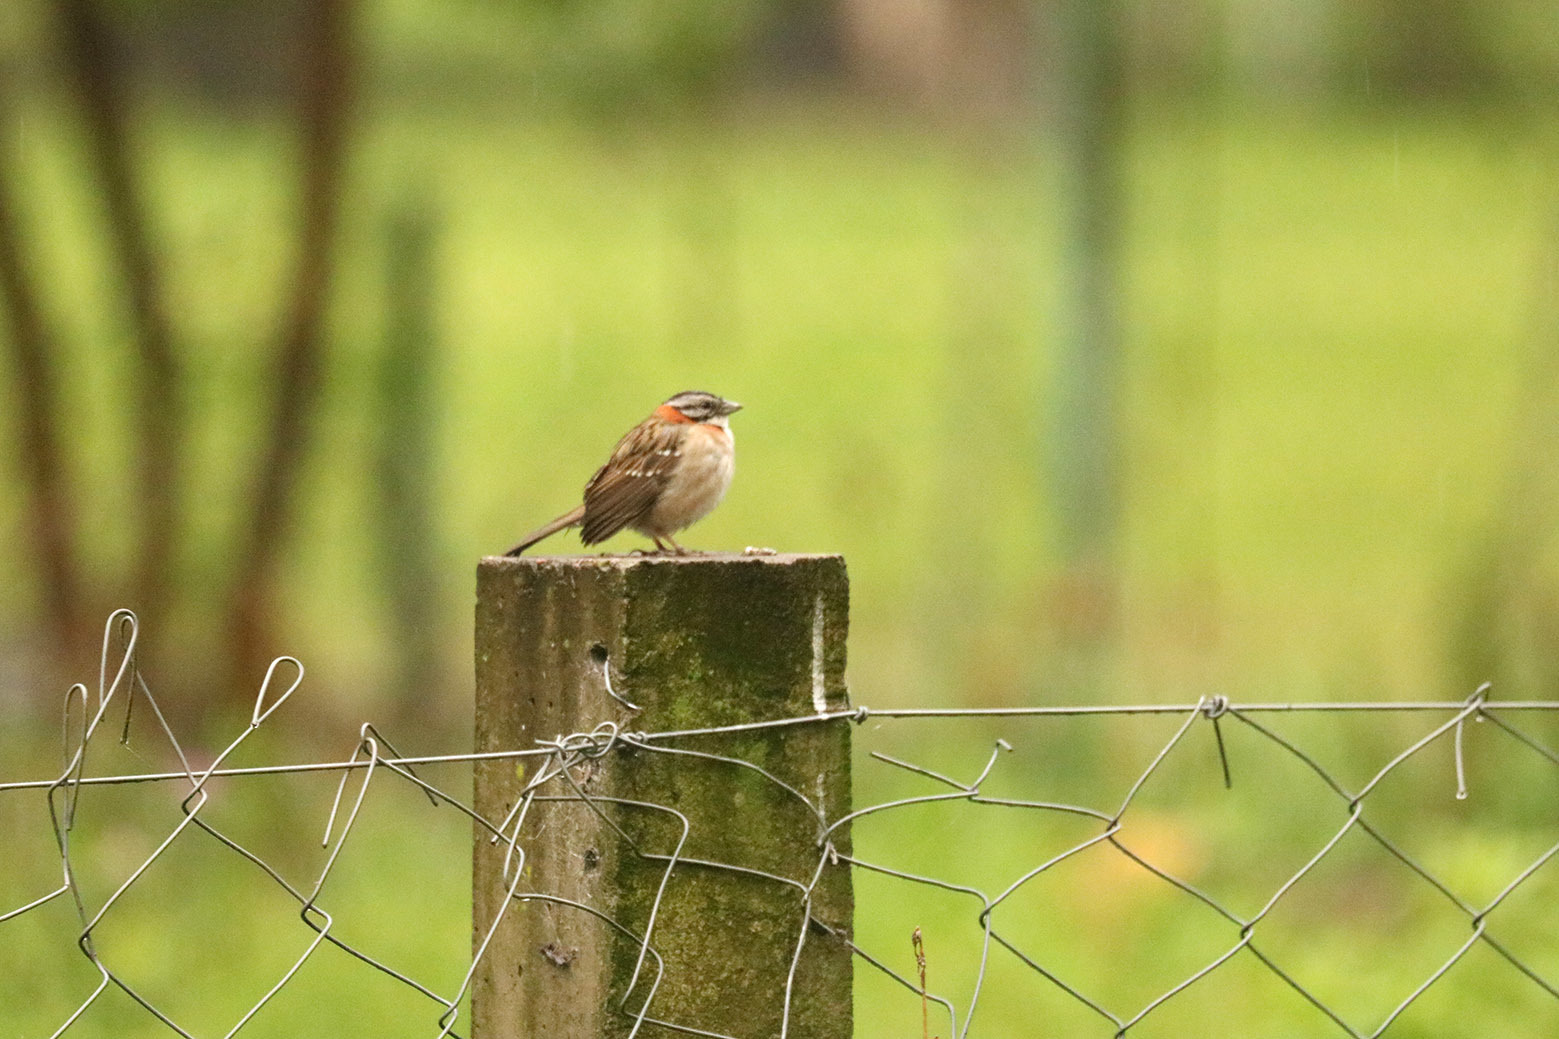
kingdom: Animalia
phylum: Chordata
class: Aves
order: Passeriformes
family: Passerellidae
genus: Zonotrichia
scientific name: Zonotrichia capensis
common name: Rufous-collared sparrow
